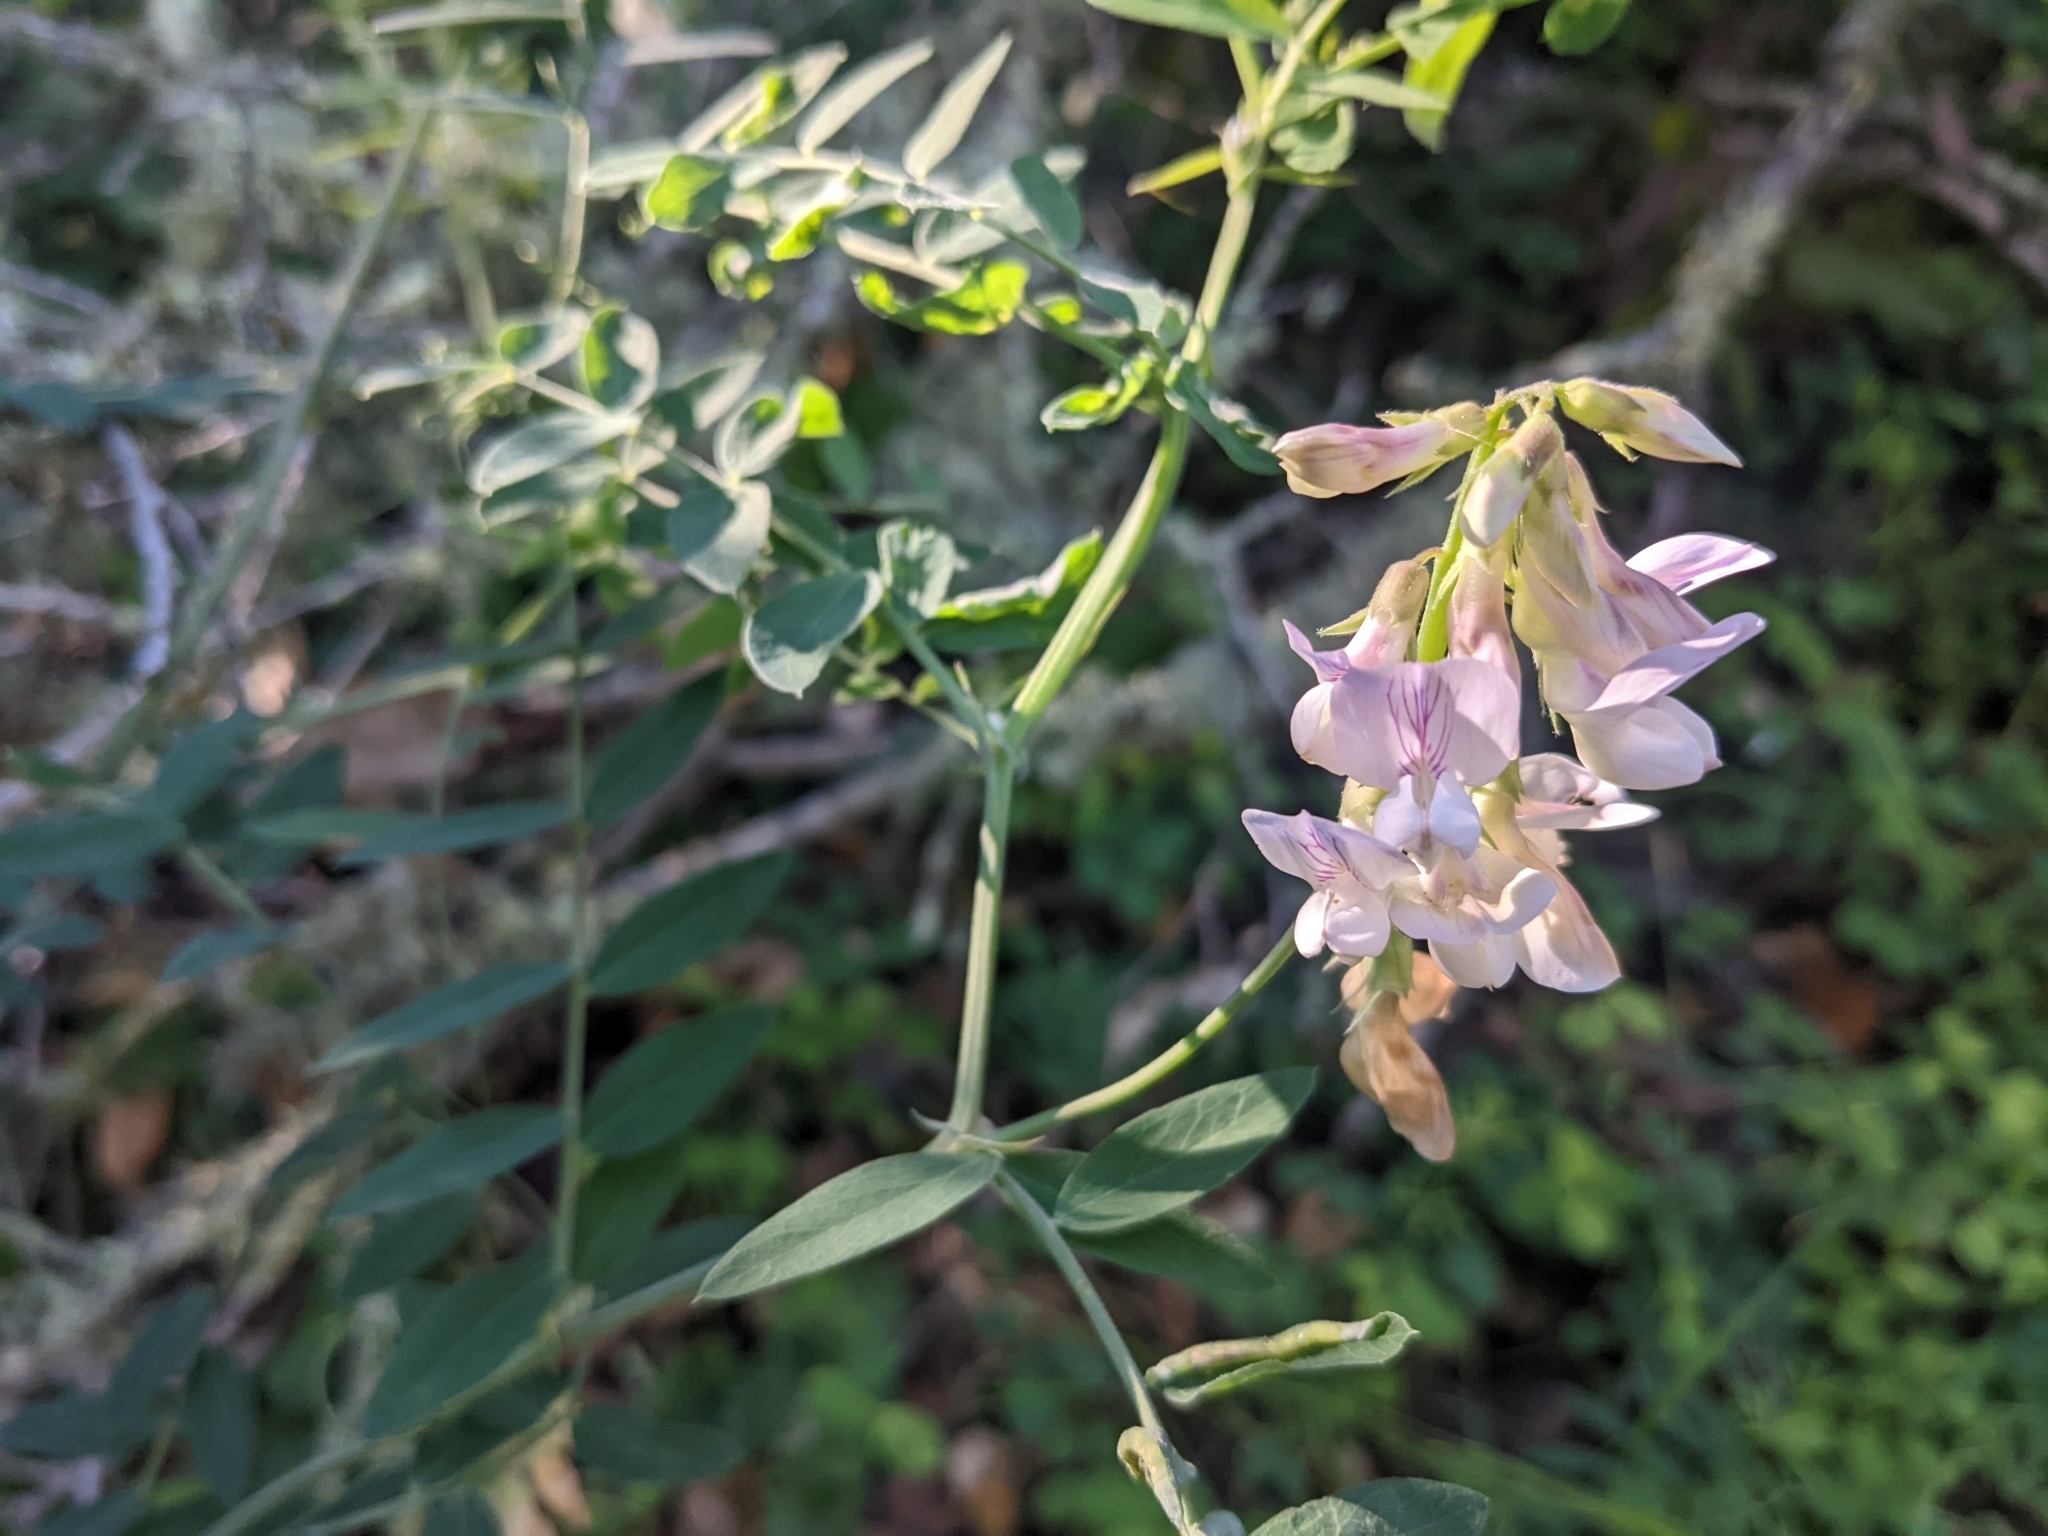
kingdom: Plantae
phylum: Tracheophyta
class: Magnoliopsida
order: Fabales
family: Fabaceae
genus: Lathyrus
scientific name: Lathyrus vestitus
